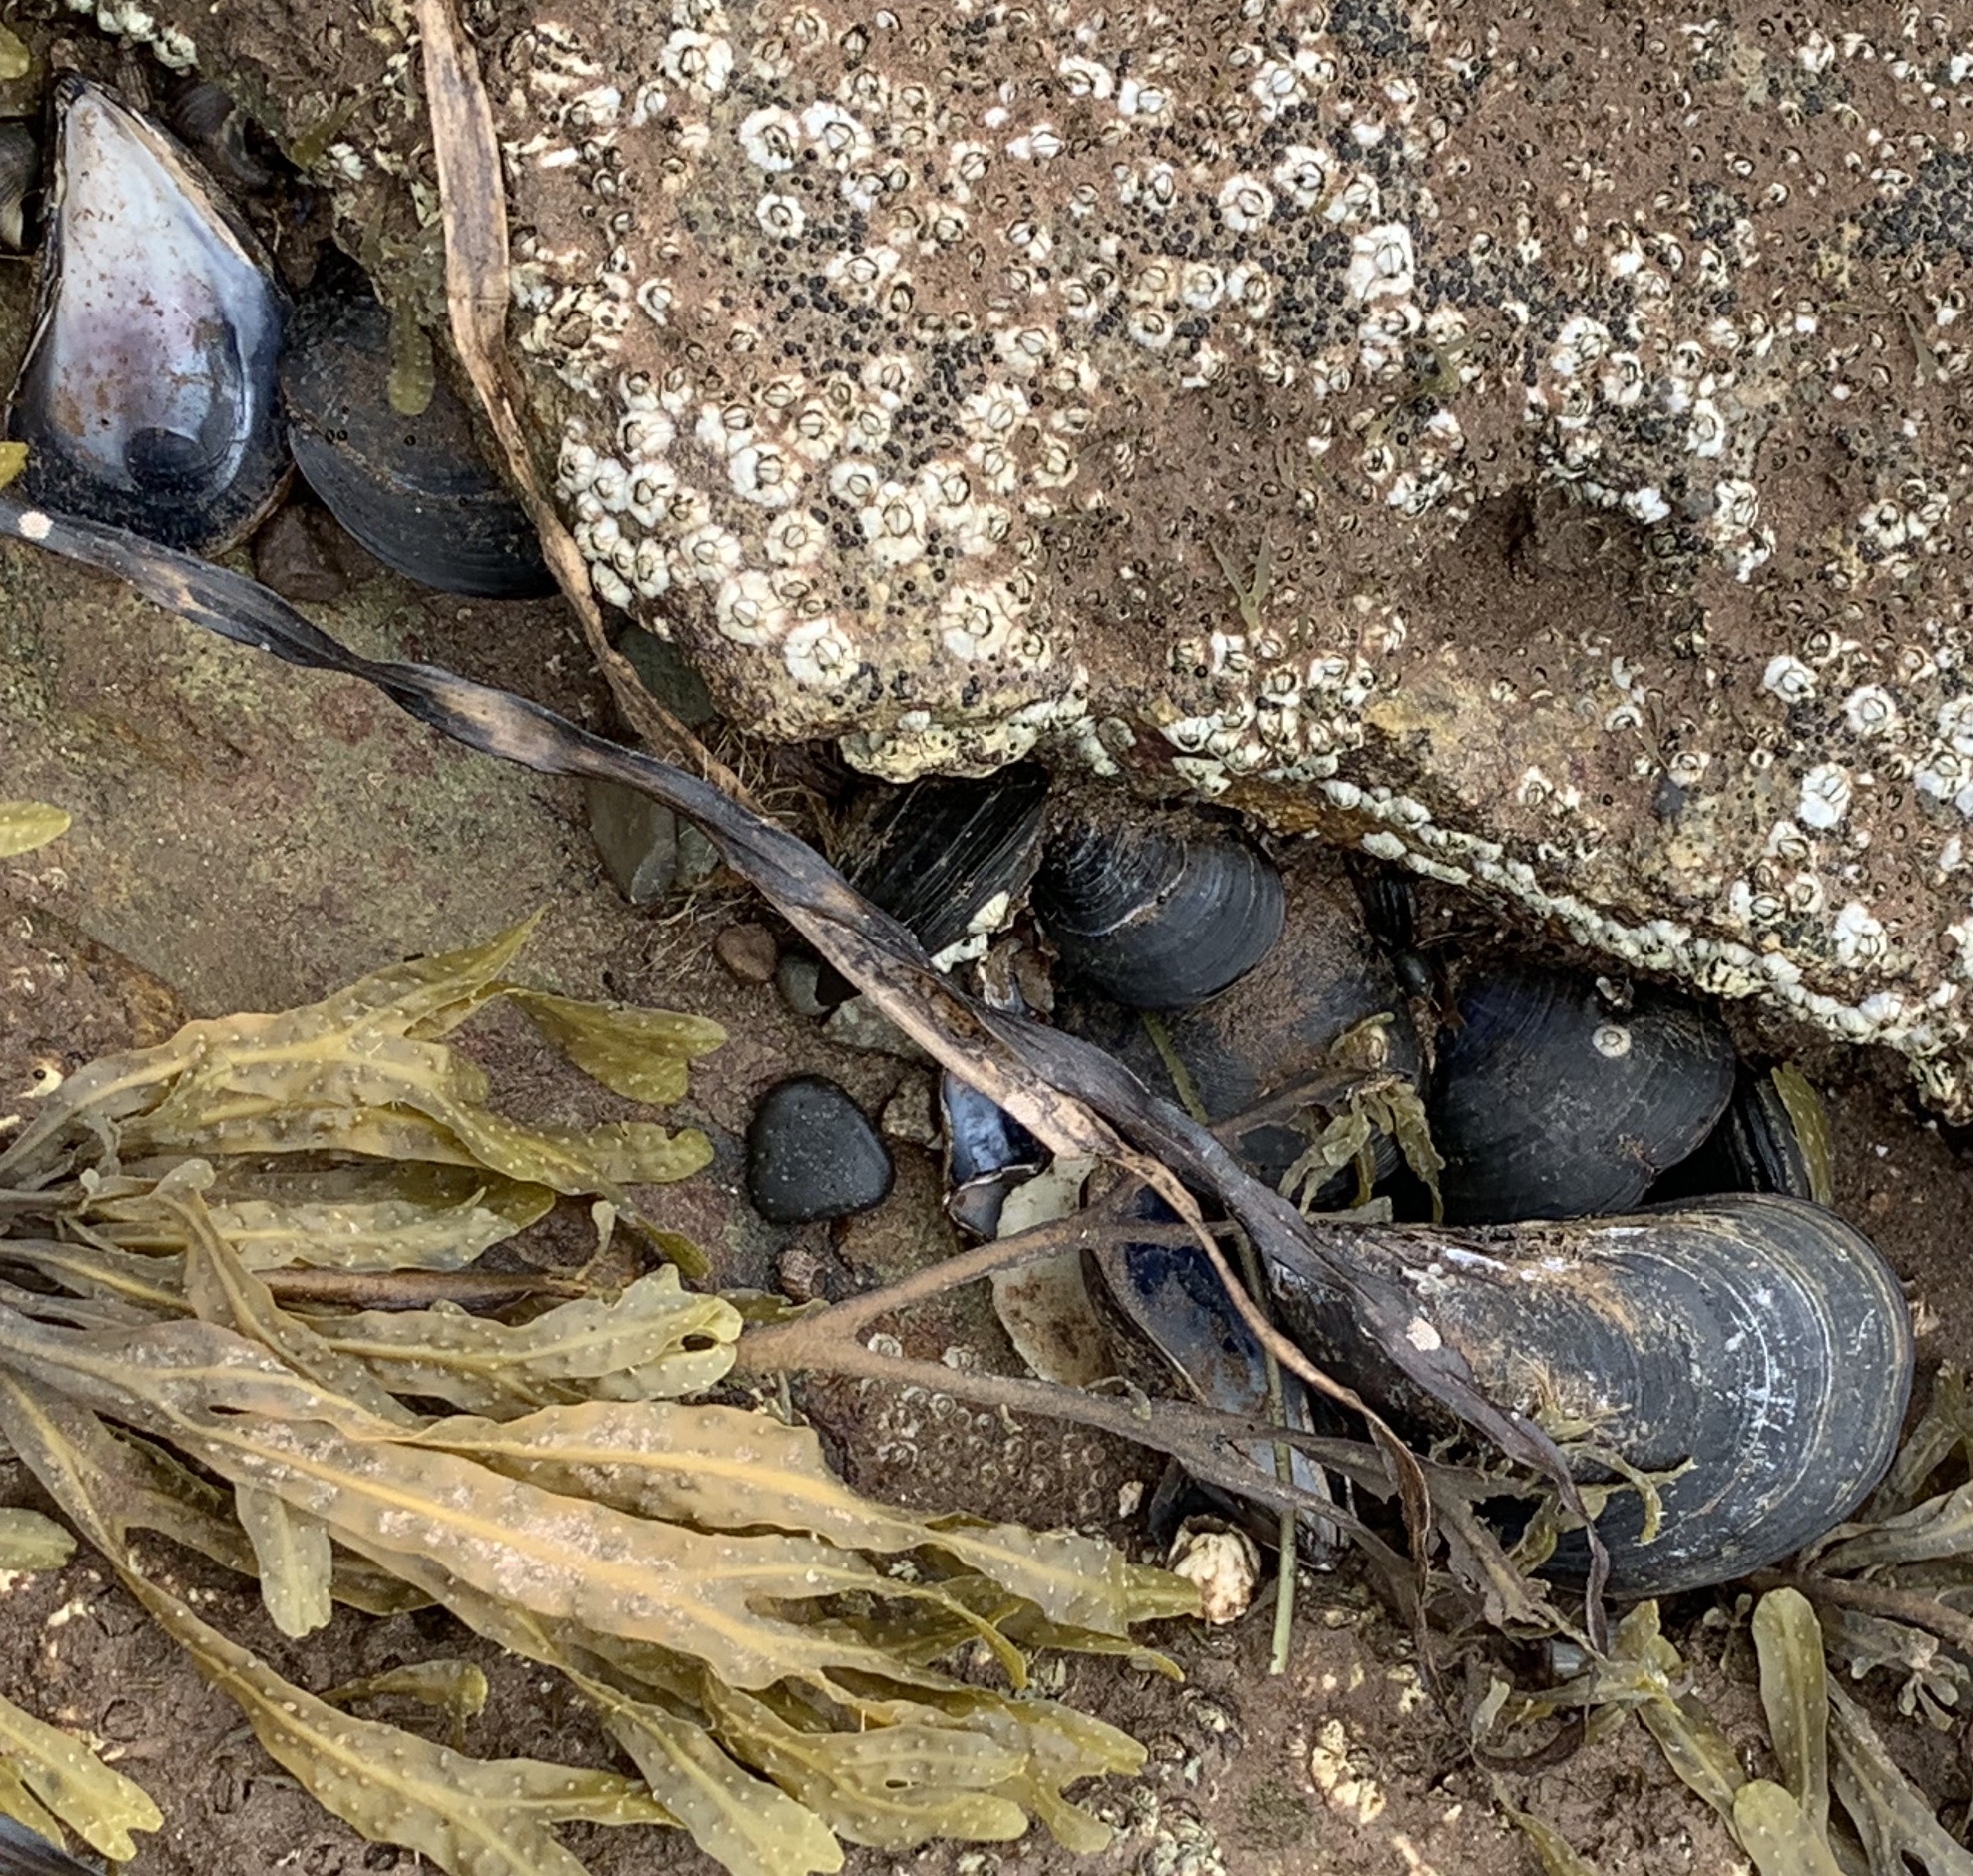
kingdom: Animalia
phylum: Mollusca
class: Bivalvia
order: Mytilida
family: Mytilidae
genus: Mytilus
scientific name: Mytilus edulis
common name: Blue mussel
